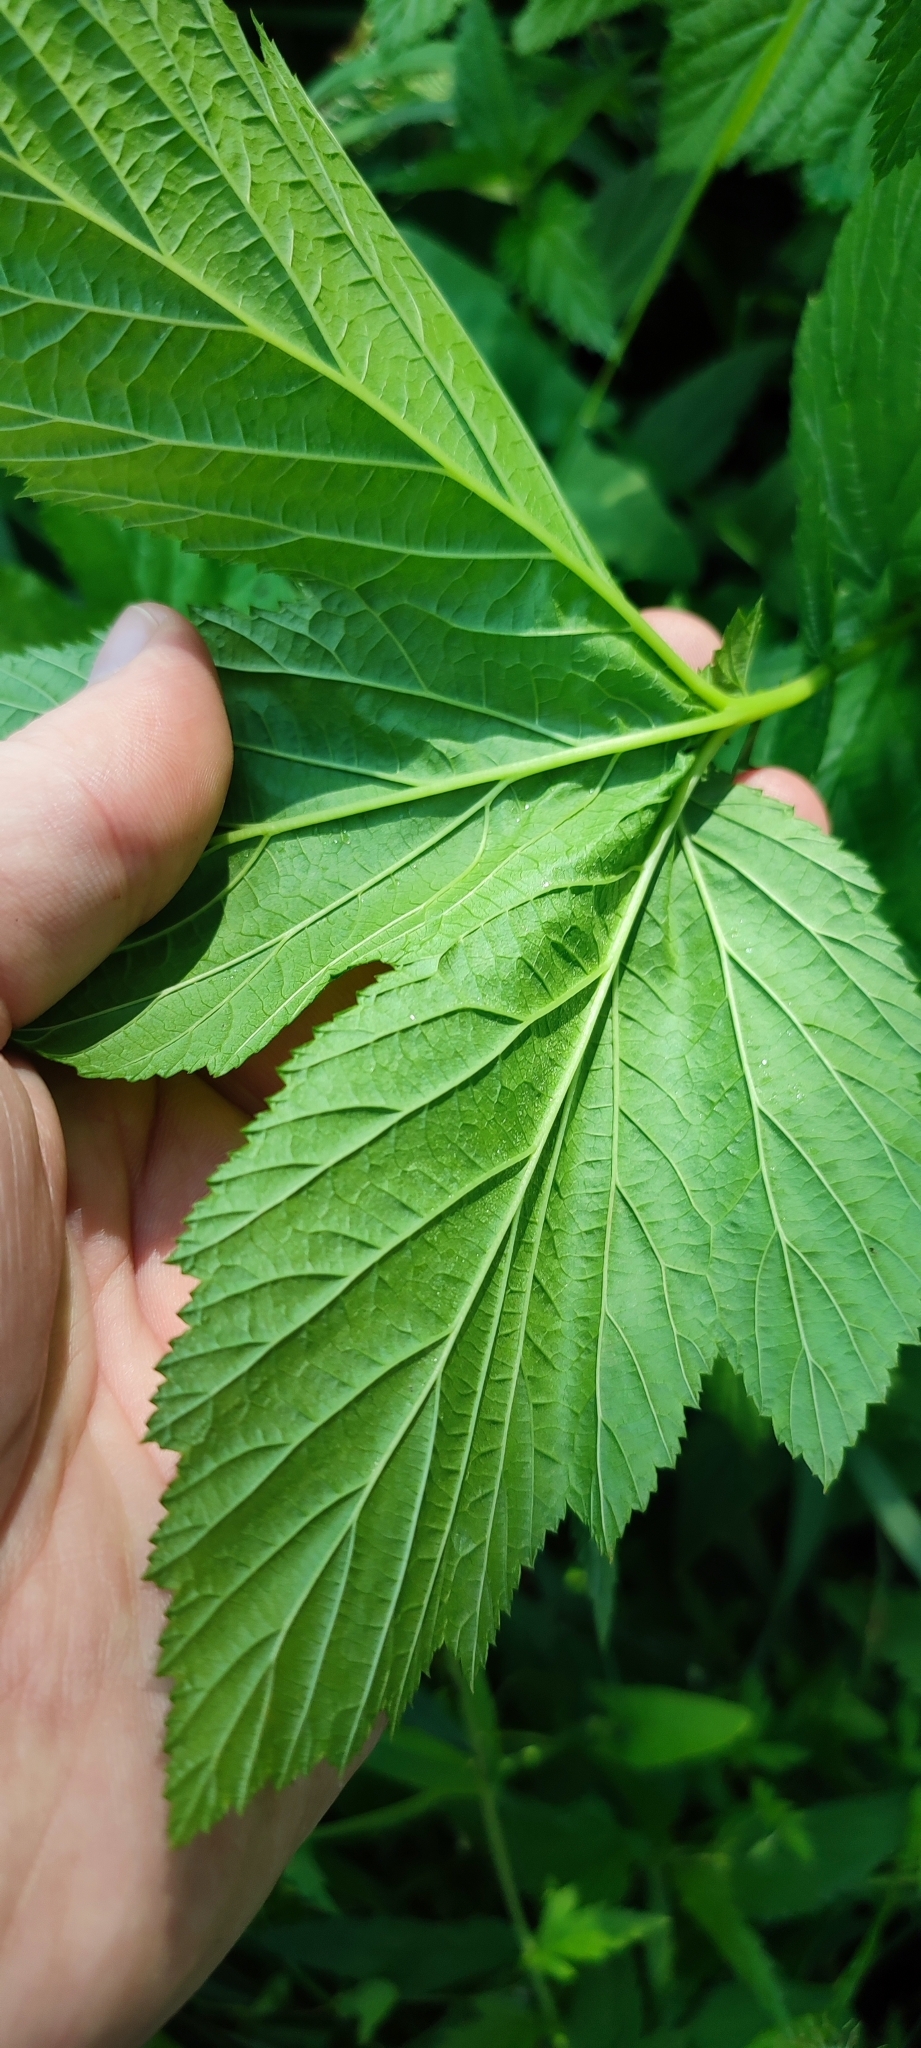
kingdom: Plantae
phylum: Tracheophyta
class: Magnoliopsida
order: Rosales
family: Rosaceae
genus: Filipendula
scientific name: Filipendula ulmaria
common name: Meadowsweet
